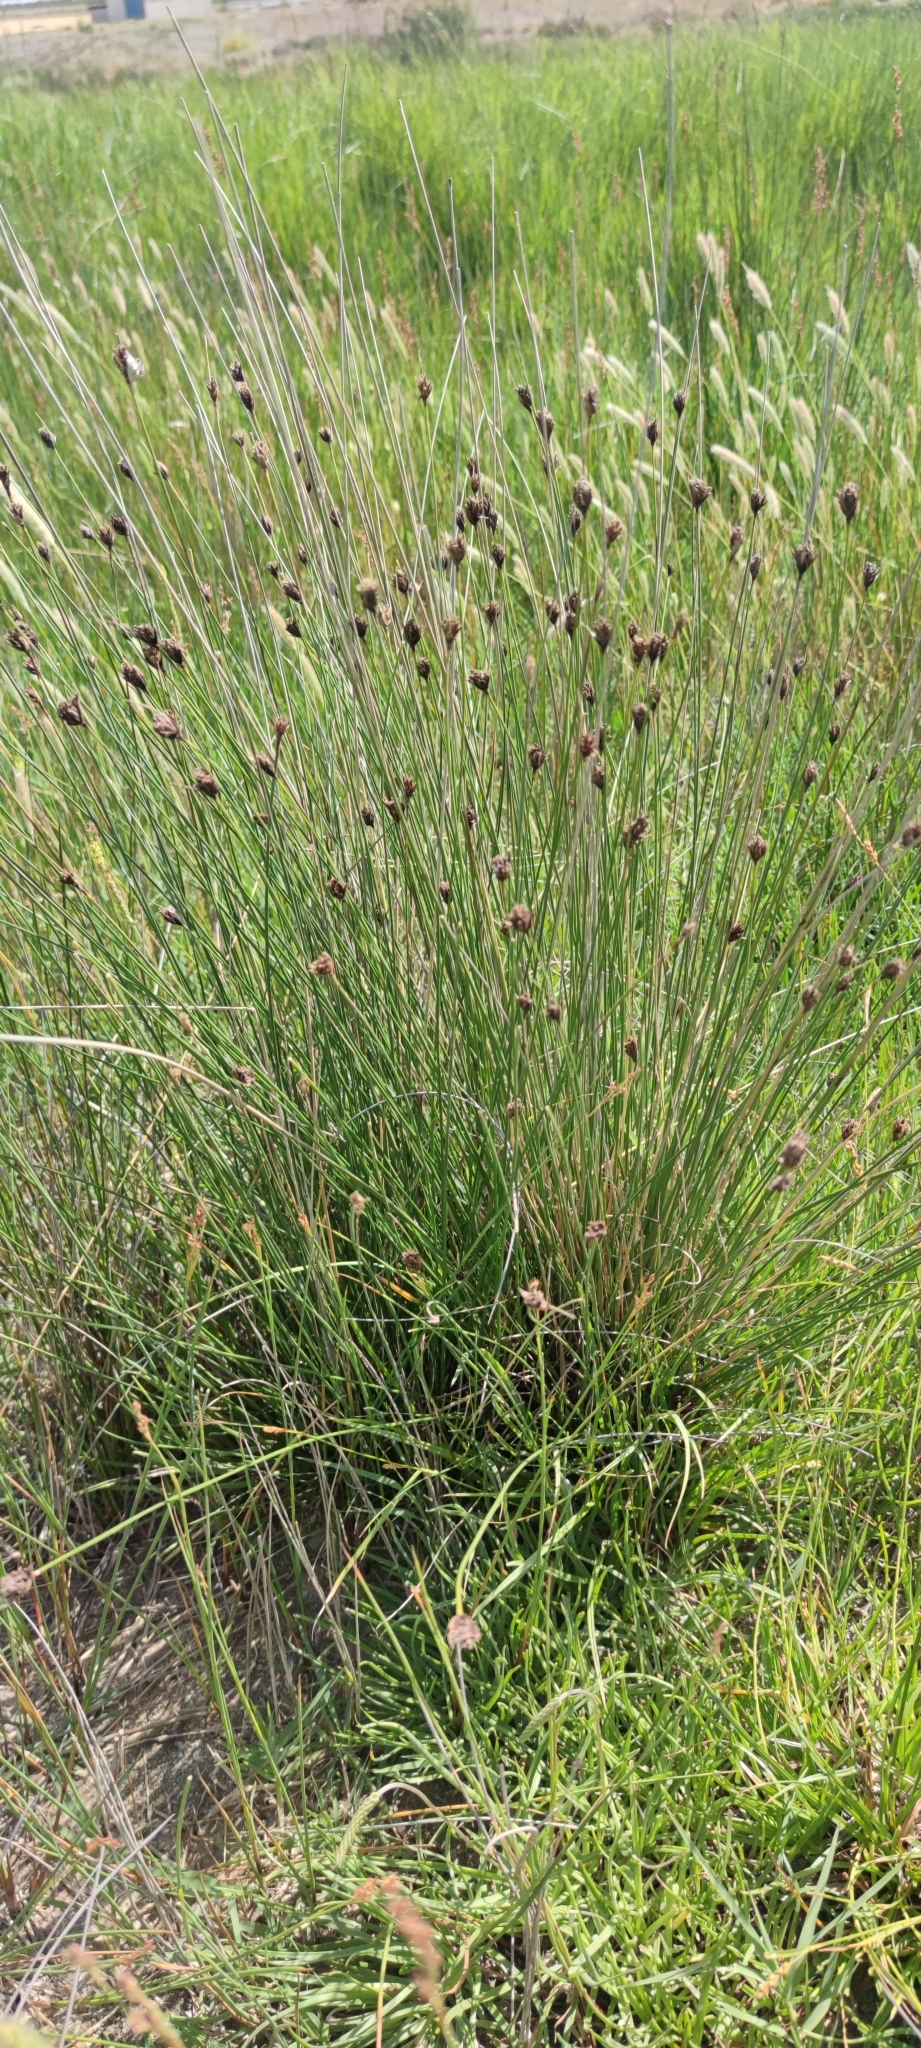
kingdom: Plantae
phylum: Tracheophyta
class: Liliopsida
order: Poales
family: Cyperaceae
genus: Schoenus
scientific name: Schoenus nigricans
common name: Black bog-rush
